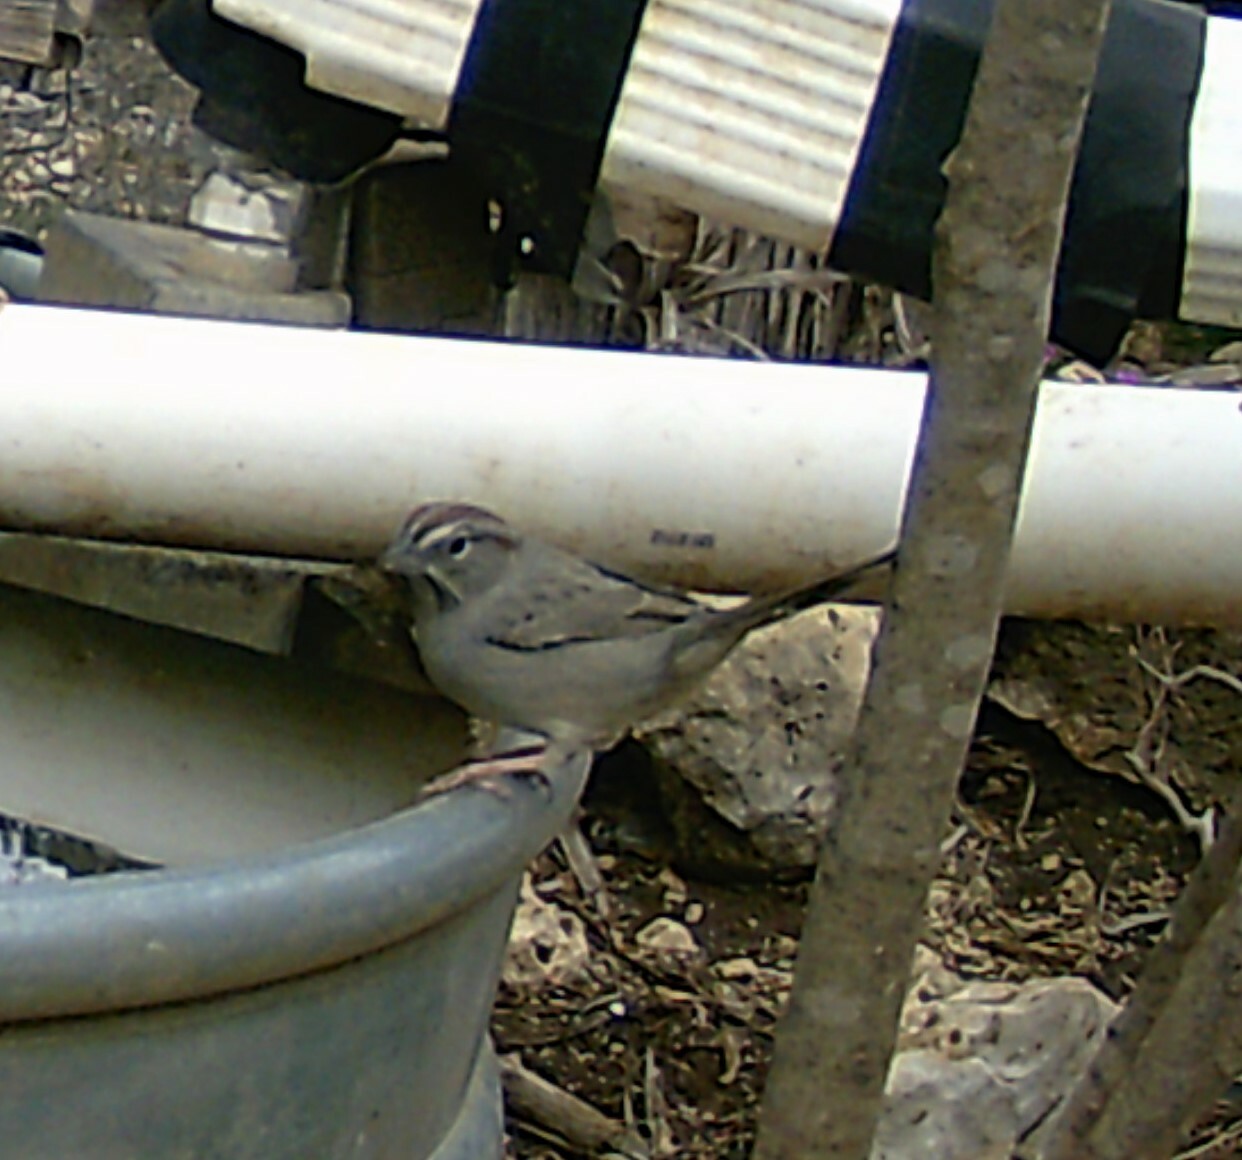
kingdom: Animalia
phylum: Chordata
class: Aves
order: Passeriformes
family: Passerellidae
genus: Aimophila
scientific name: Aimophila ruficeps
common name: Rufous-crowned sparrow
